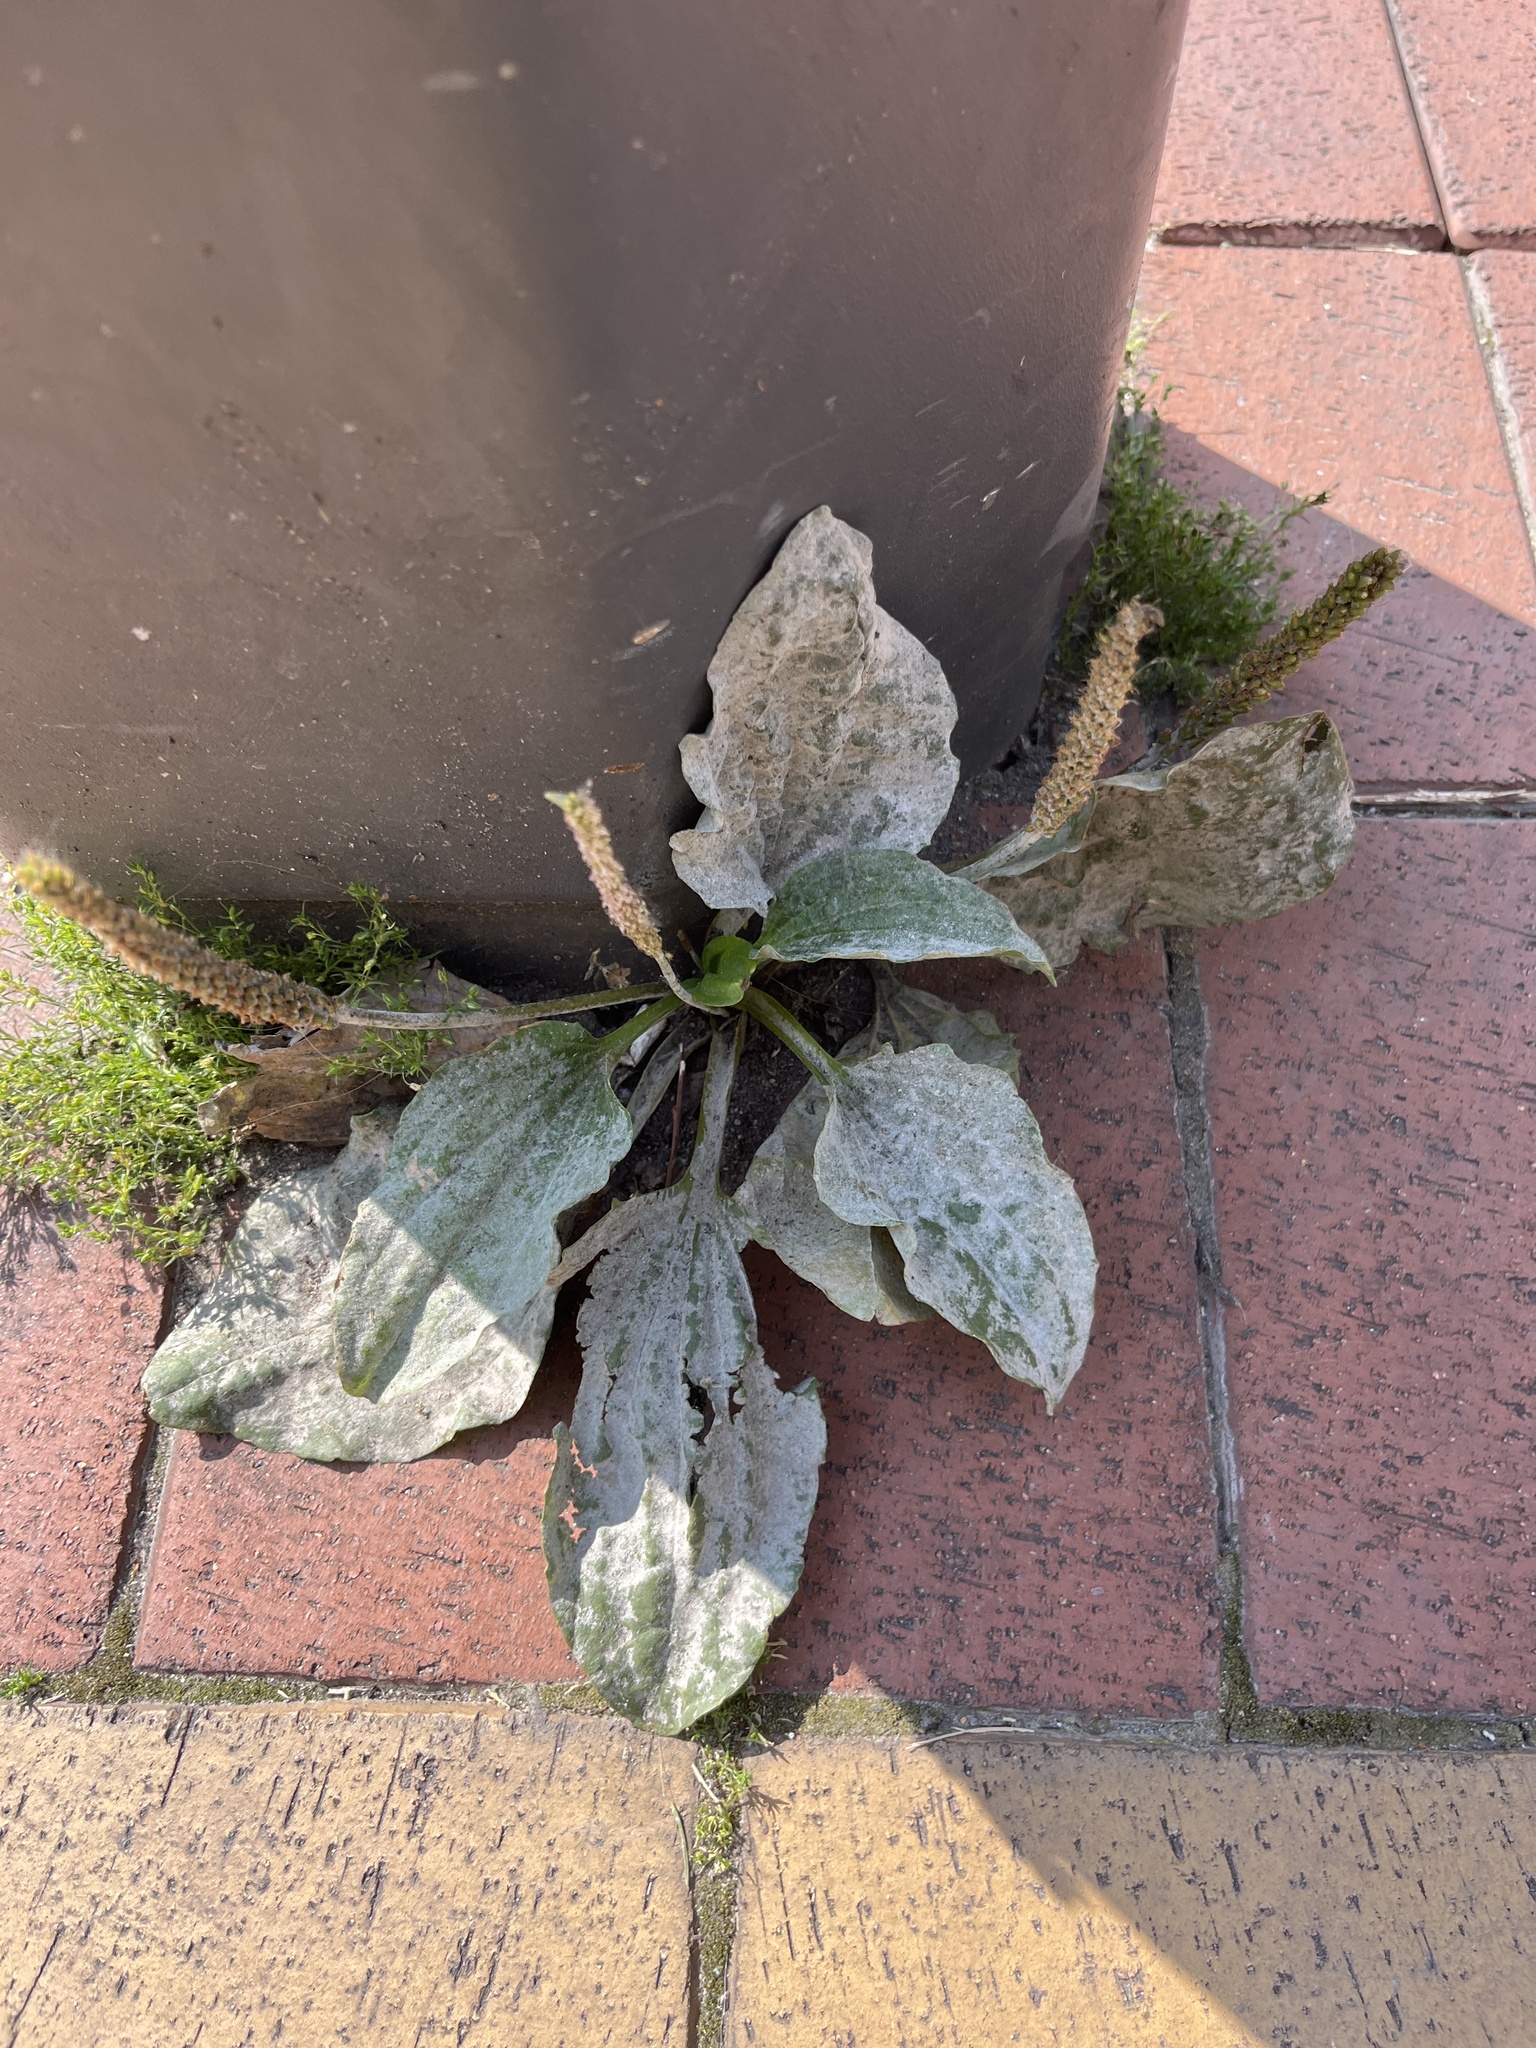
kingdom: Plantae
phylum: Tracheophyta
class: Magnoliopsida
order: Lamiales
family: Plantaginaceae
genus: Plantago
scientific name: Plantago major
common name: Common plantain
